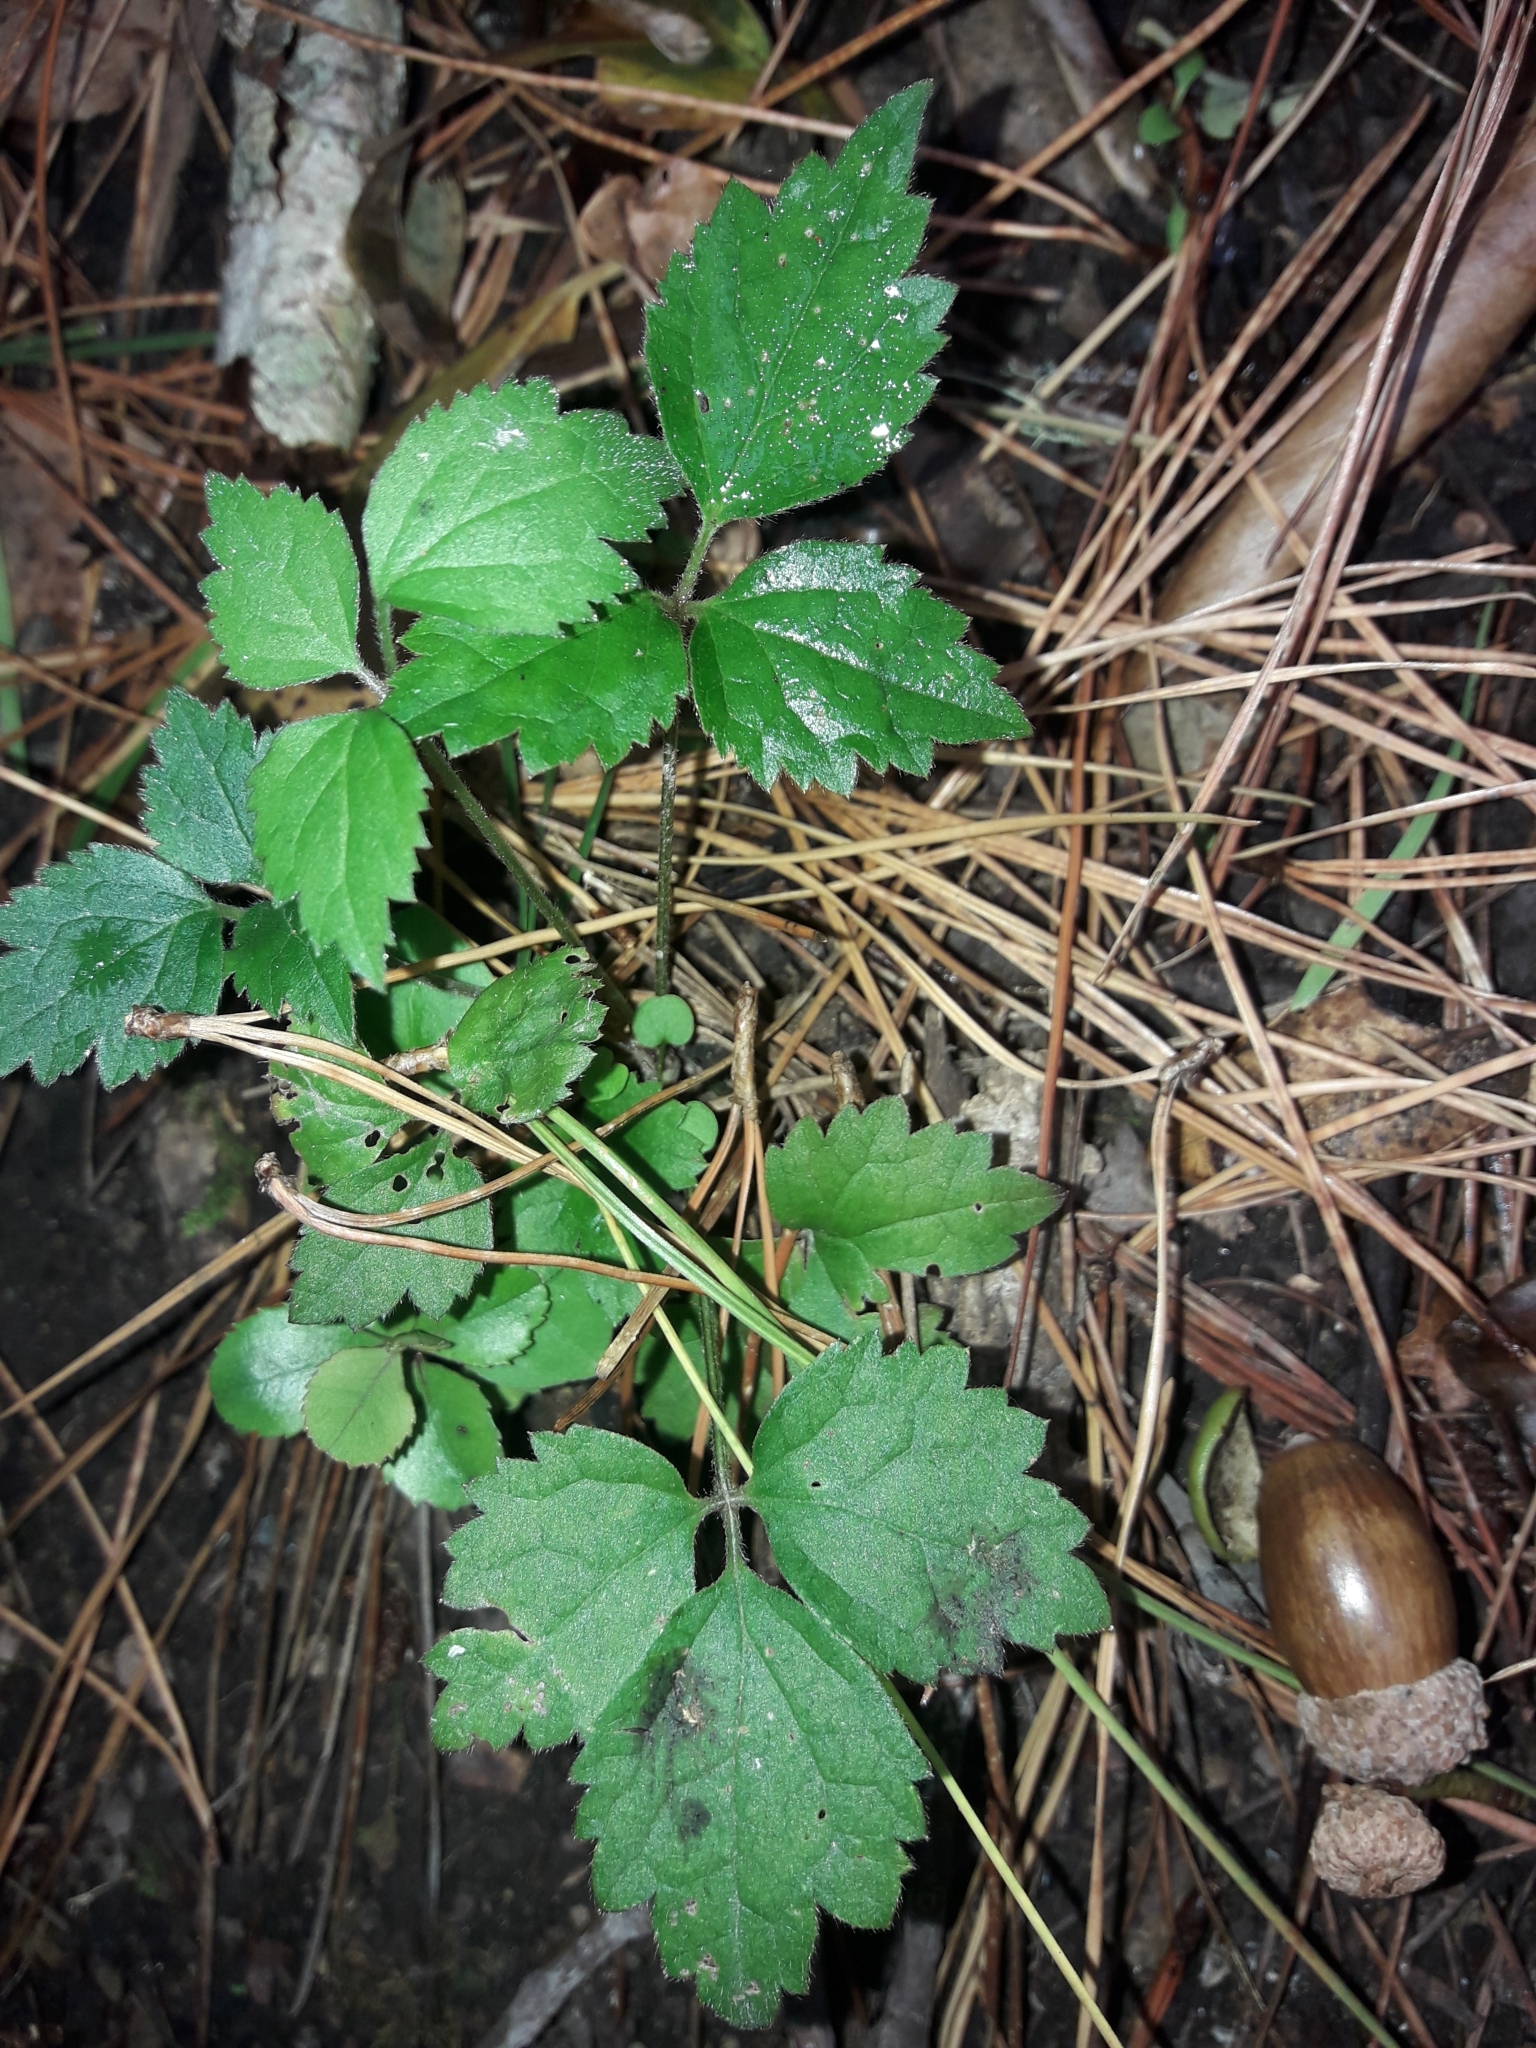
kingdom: Plantae
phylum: Tracheophyta
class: Magnoliopsida
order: Ranunculales
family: Ranunculaceae
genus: Clematis
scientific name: Clematis vitalba
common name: Evergreen clematis
